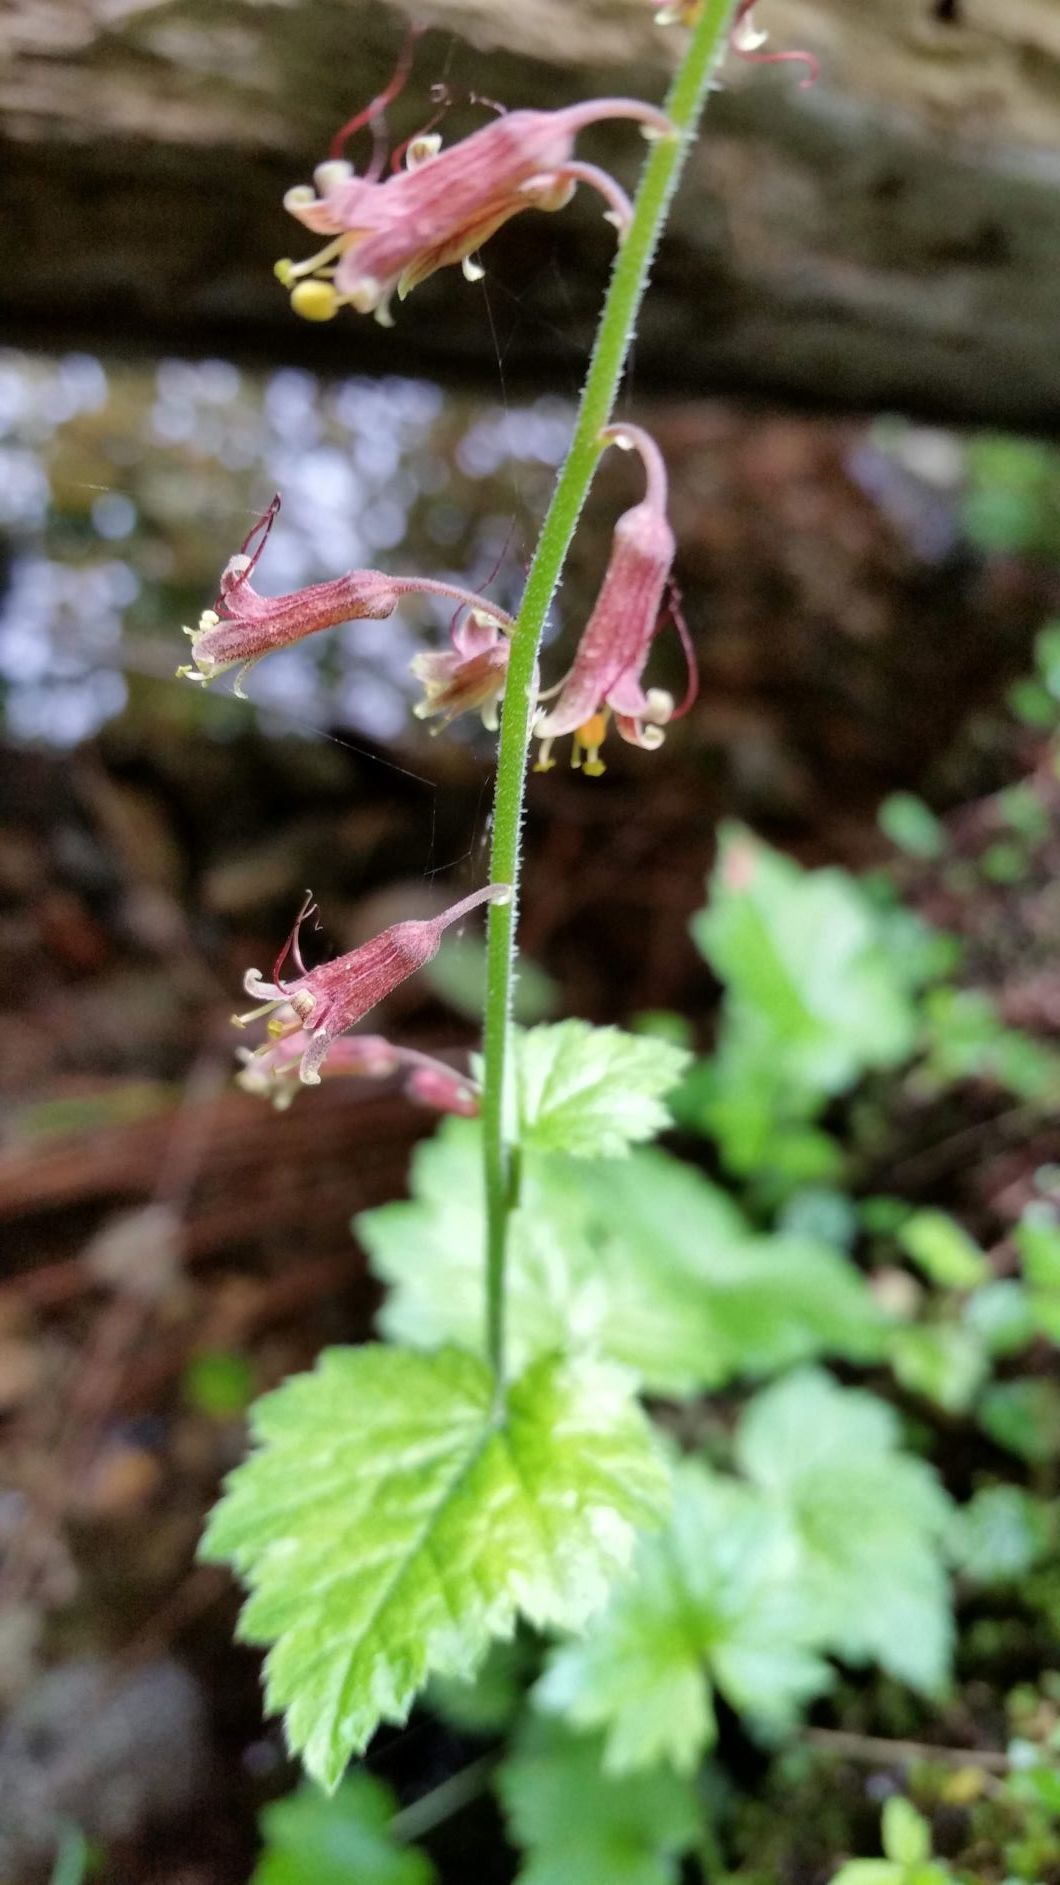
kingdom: Plantae
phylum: Tracheophyta
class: Magnoliopsida
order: Saxifragales
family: Saxifragaceae
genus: Tolmiea
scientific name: Tolmiea menziesii
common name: Pick-a-back-plant
